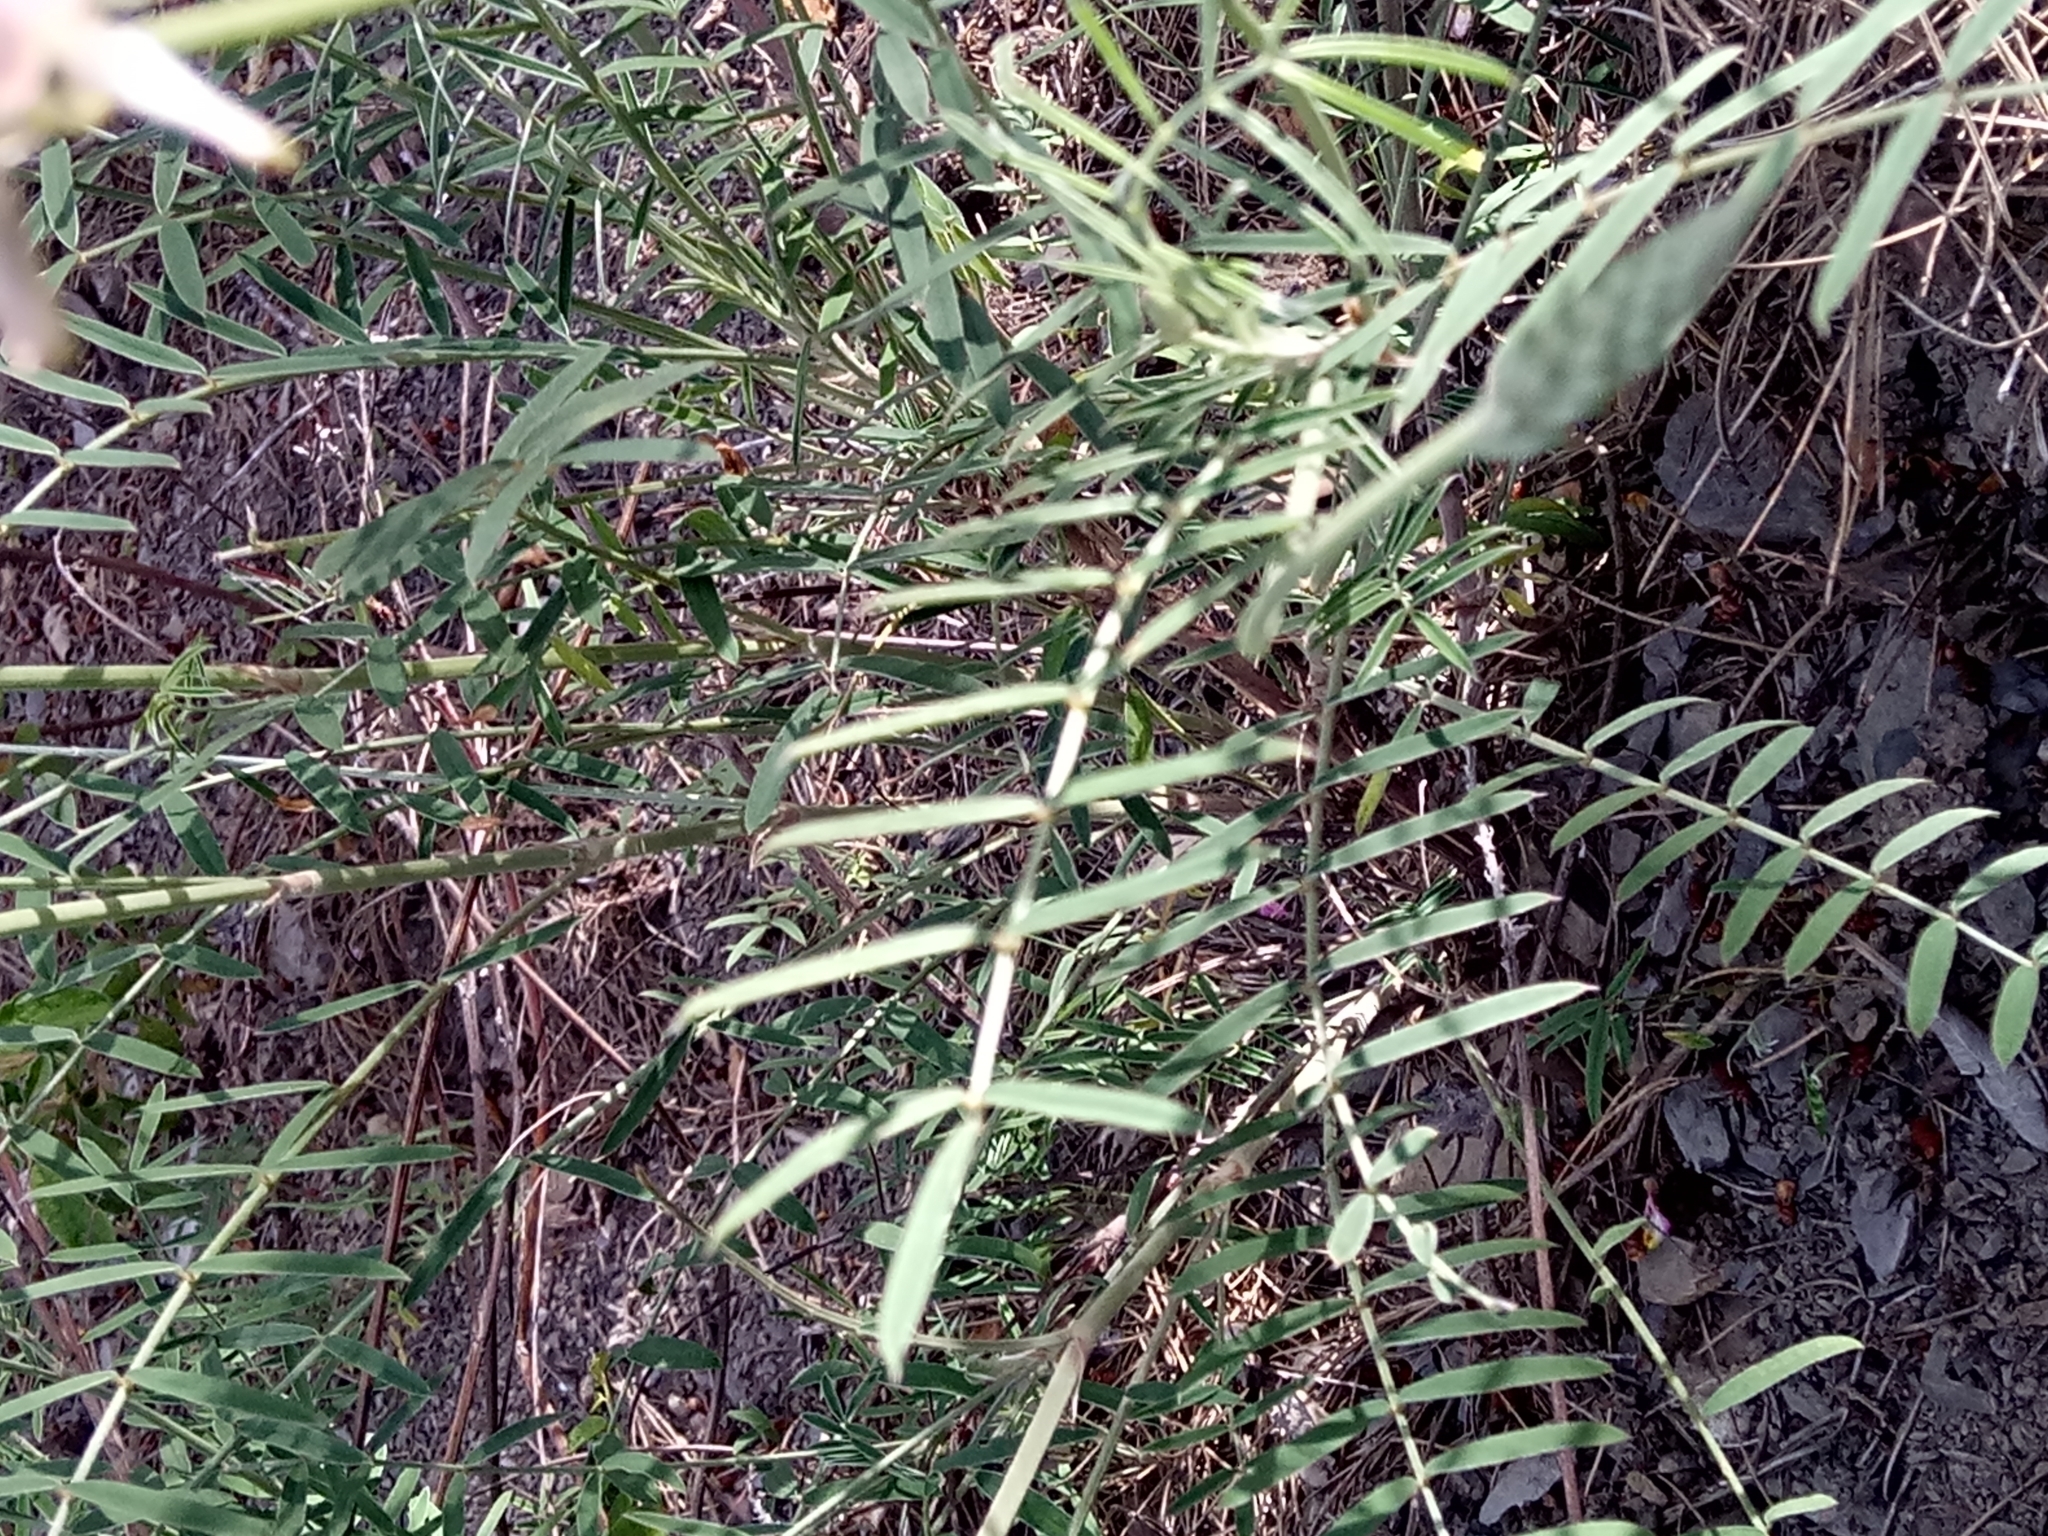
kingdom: Plantae
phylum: Tracheophyta
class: Magnoliopsida
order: Fabales
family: Fabaceae
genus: Onobrychis
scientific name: Onobrychis alba
